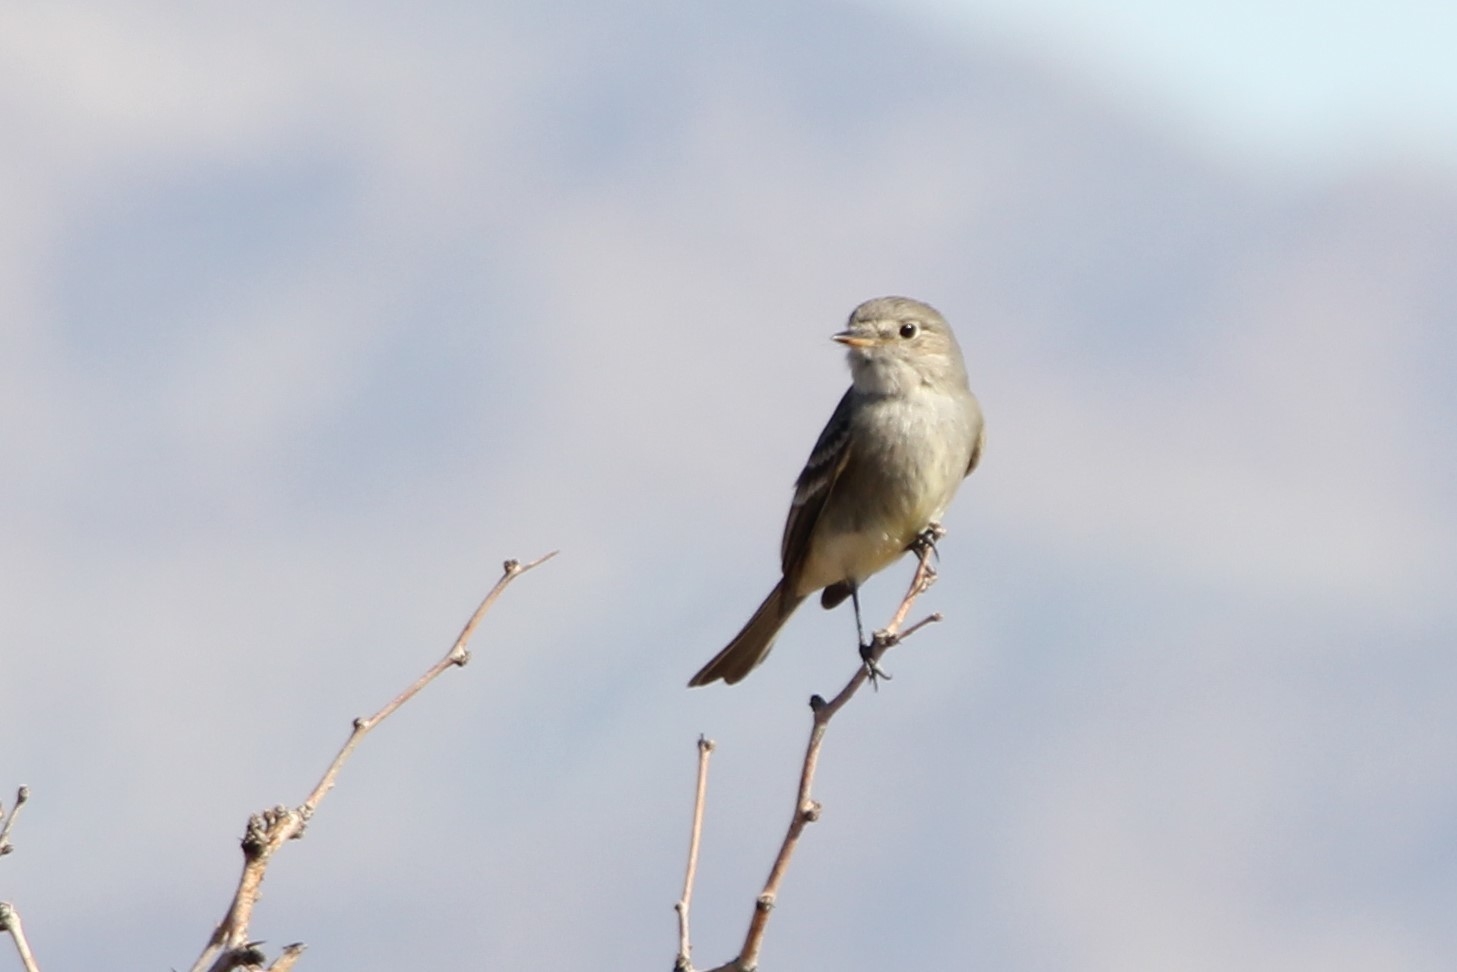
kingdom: Animalia
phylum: Chordata
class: Aves
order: Passeriformes
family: Tyrannidae
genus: Empidonax
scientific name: Empidonax wrightii
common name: Gray flycatcher
